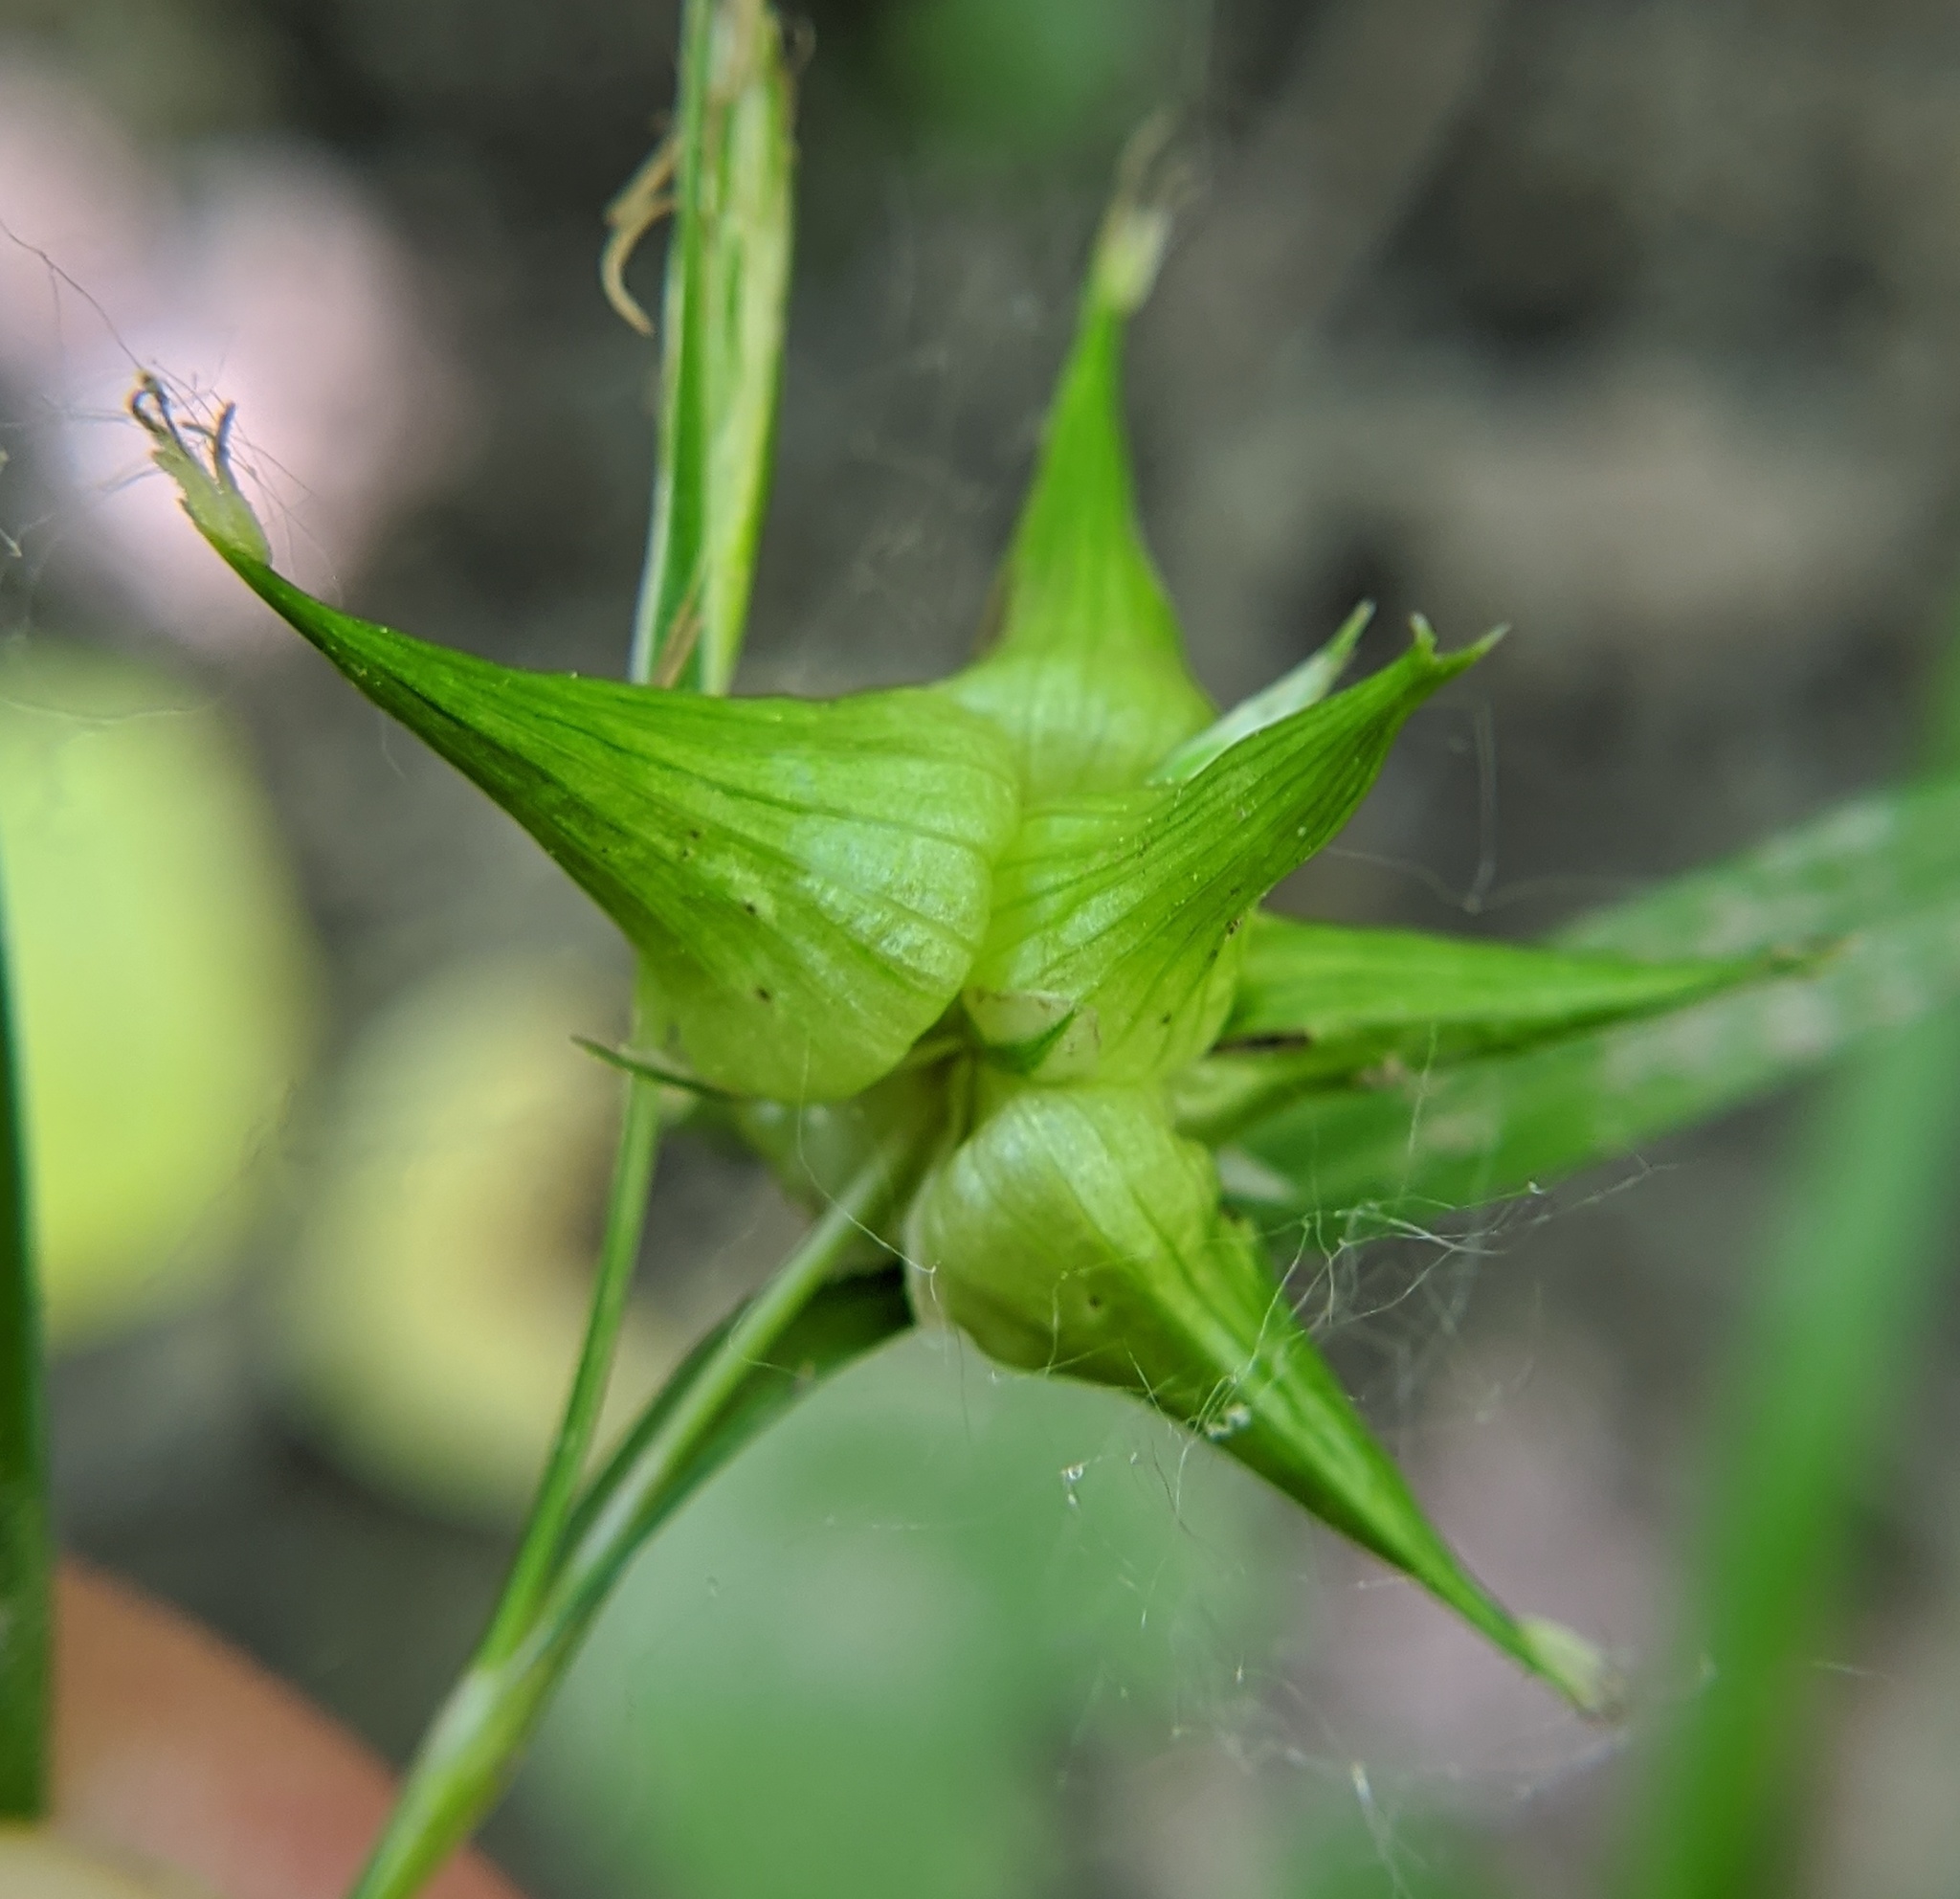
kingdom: Plantae
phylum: Tracheophyta
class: Liliopsida
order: Poales
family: Cyperaceae
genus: Carex
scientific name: Carex grayi
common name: Asa gray's sedge
